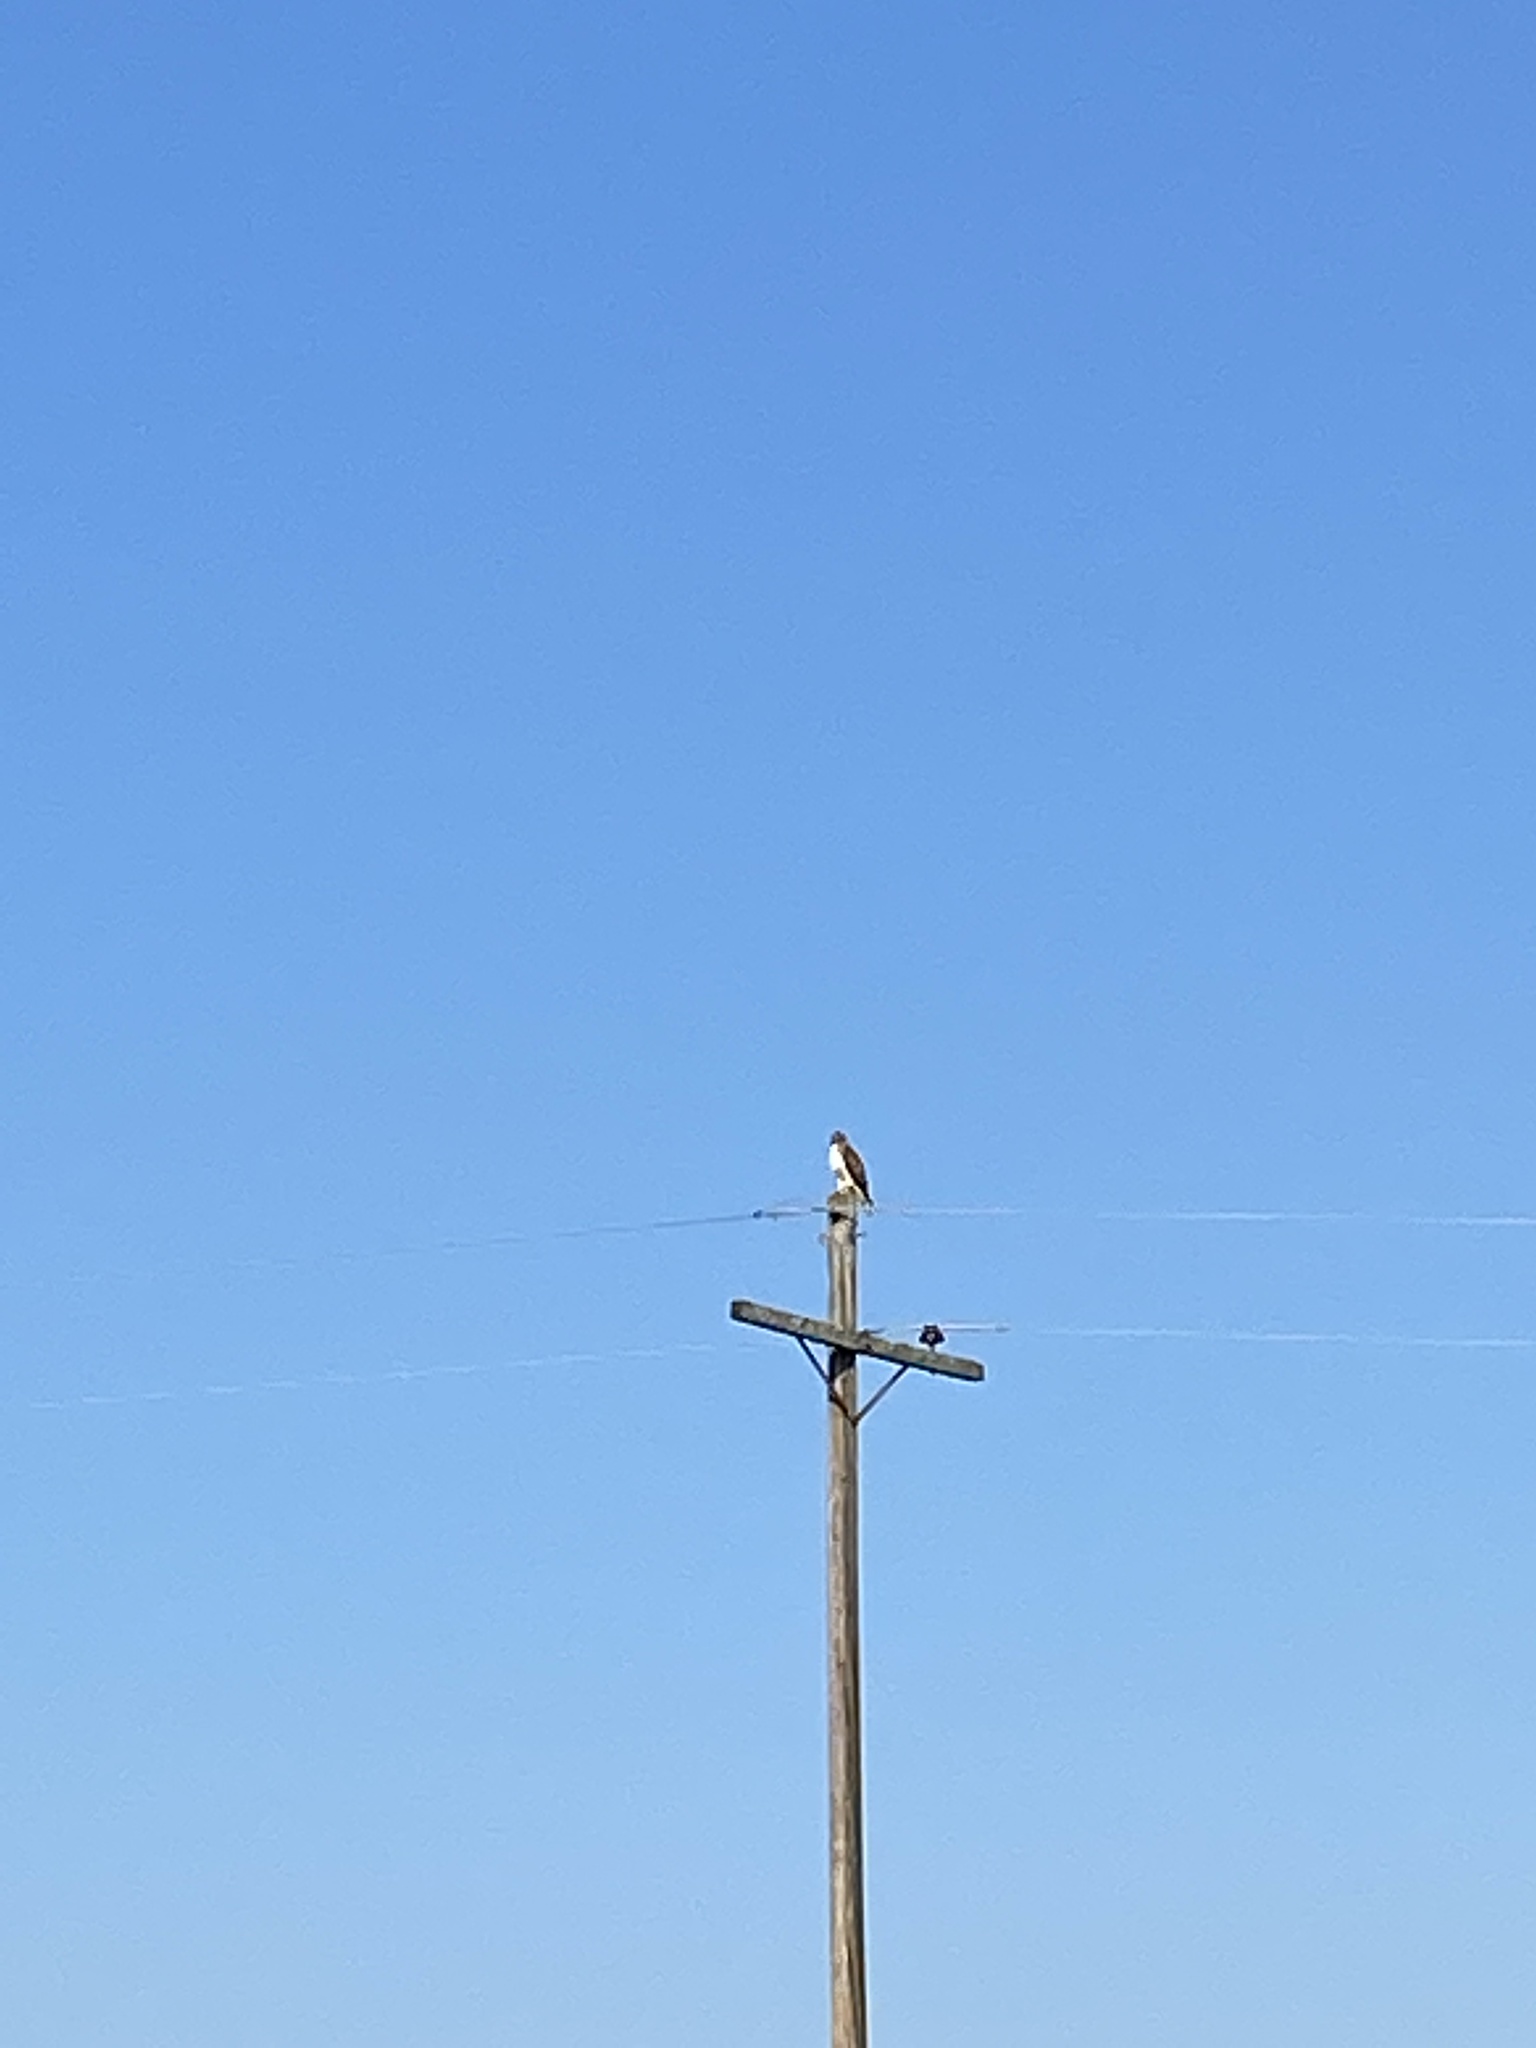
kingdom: Animalia
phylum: Chordata
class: Aves
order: Accipitriformes
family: Accipitridae
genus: Buteo
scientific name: Buteo jamaicensis
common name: Red-tailed hawk
